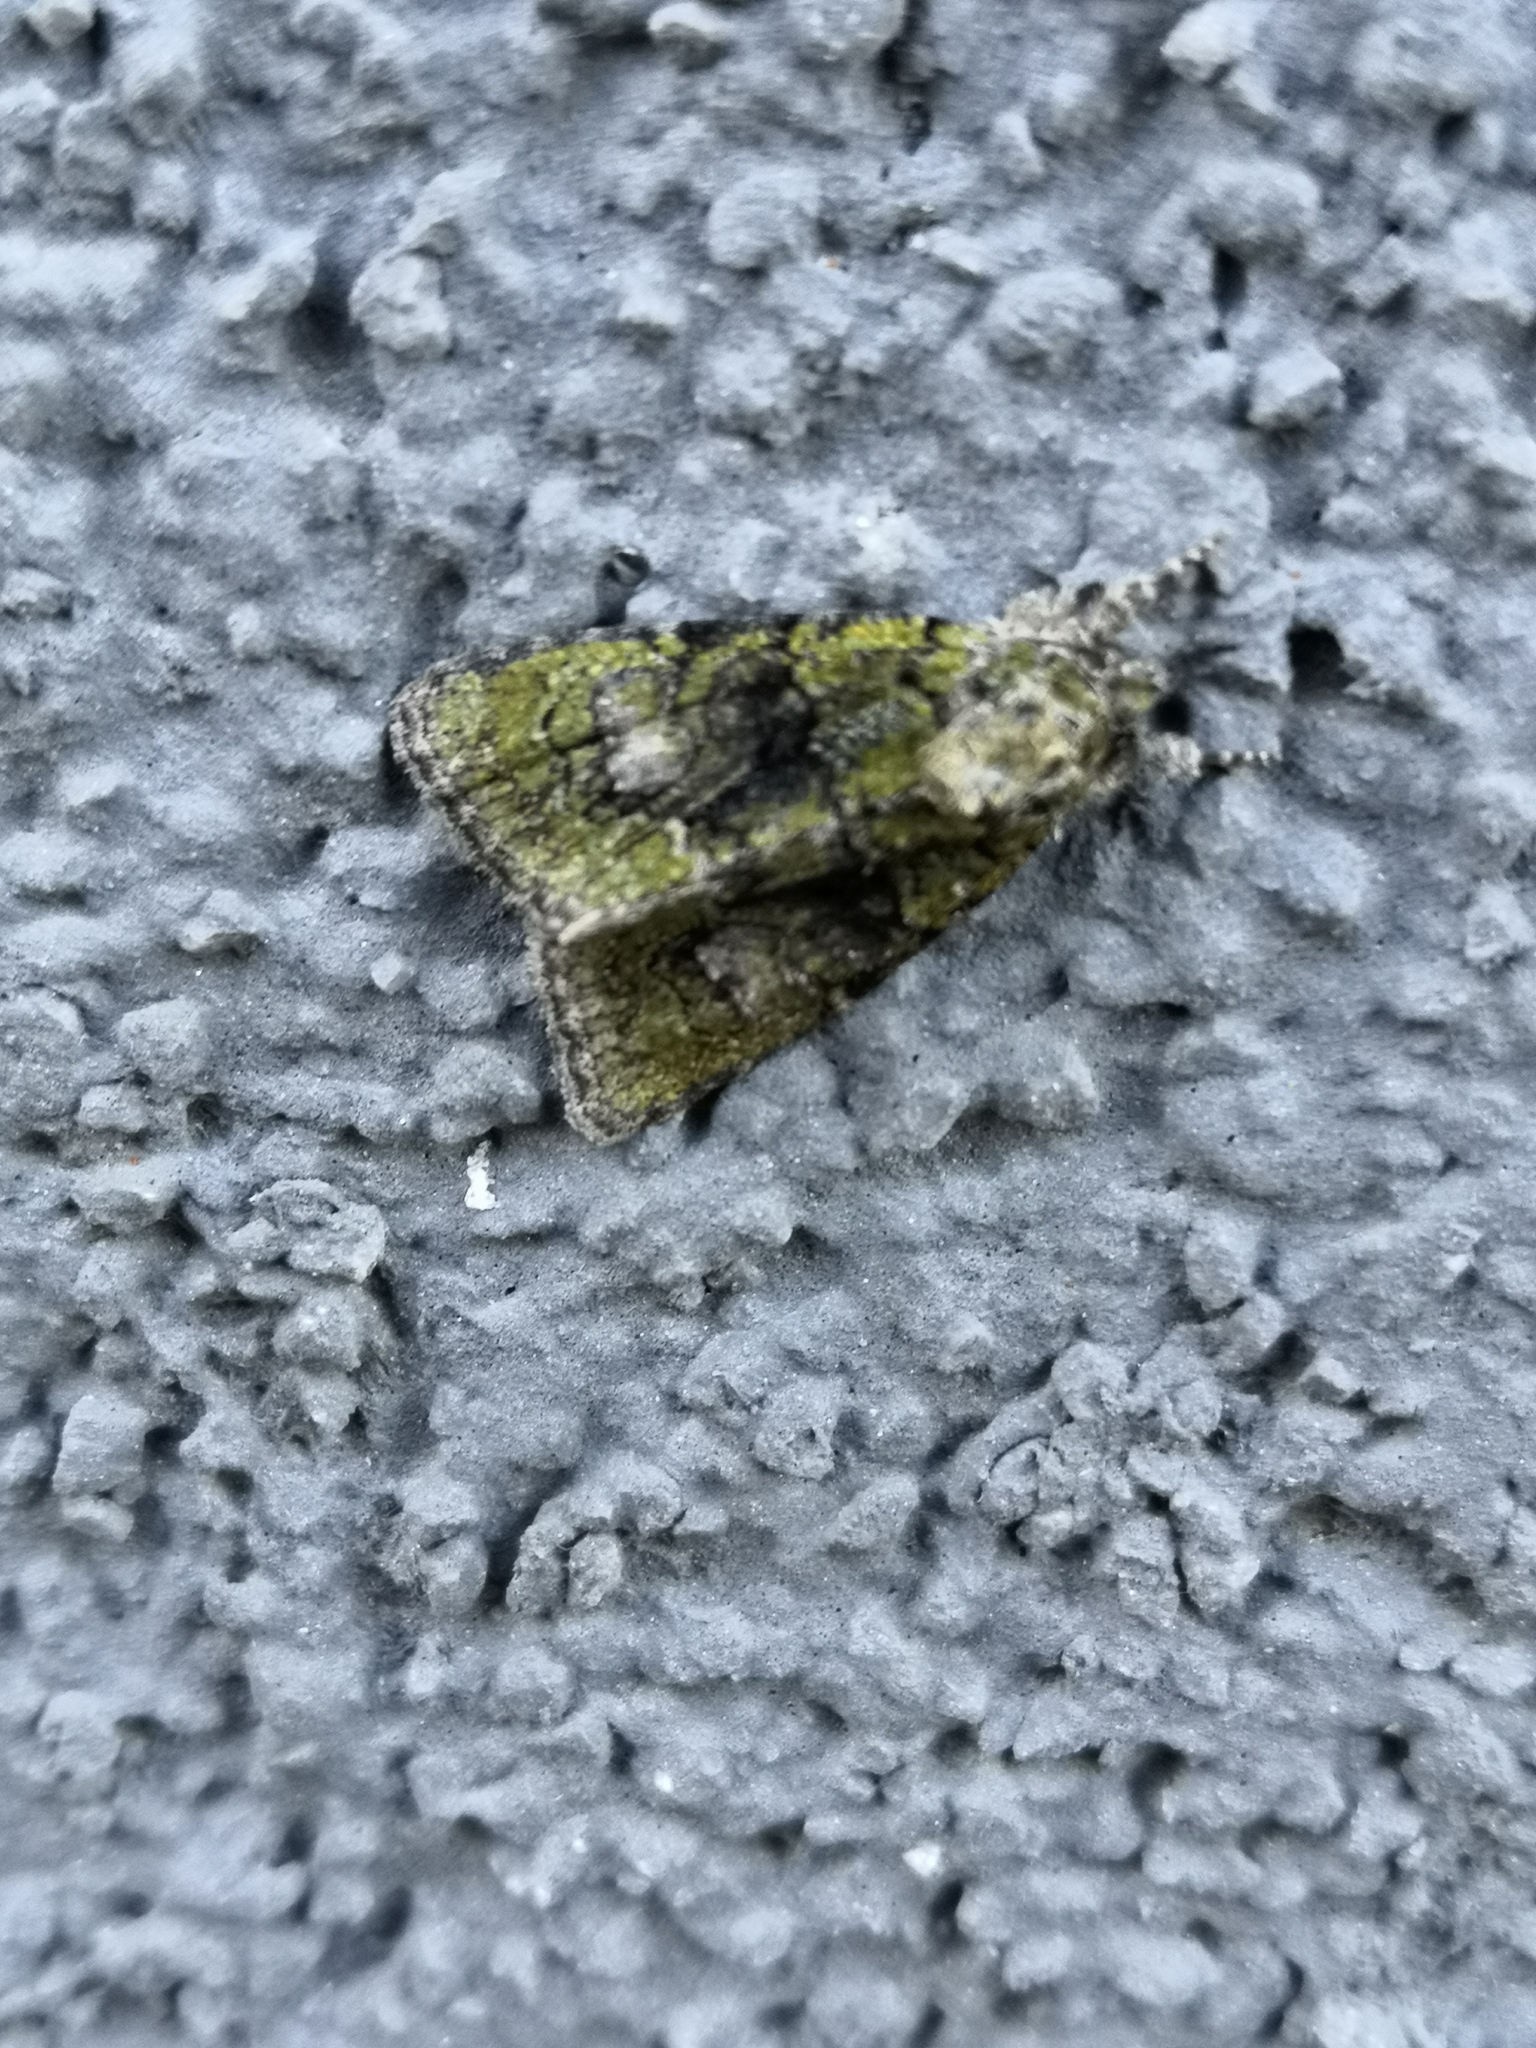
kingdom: Animalia
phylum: Arthropoda
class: Insecta
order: Lepidoptera
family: Noctuidae
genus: Cryphia
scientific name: Cryphia algae
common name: Tree-lichen beauty
